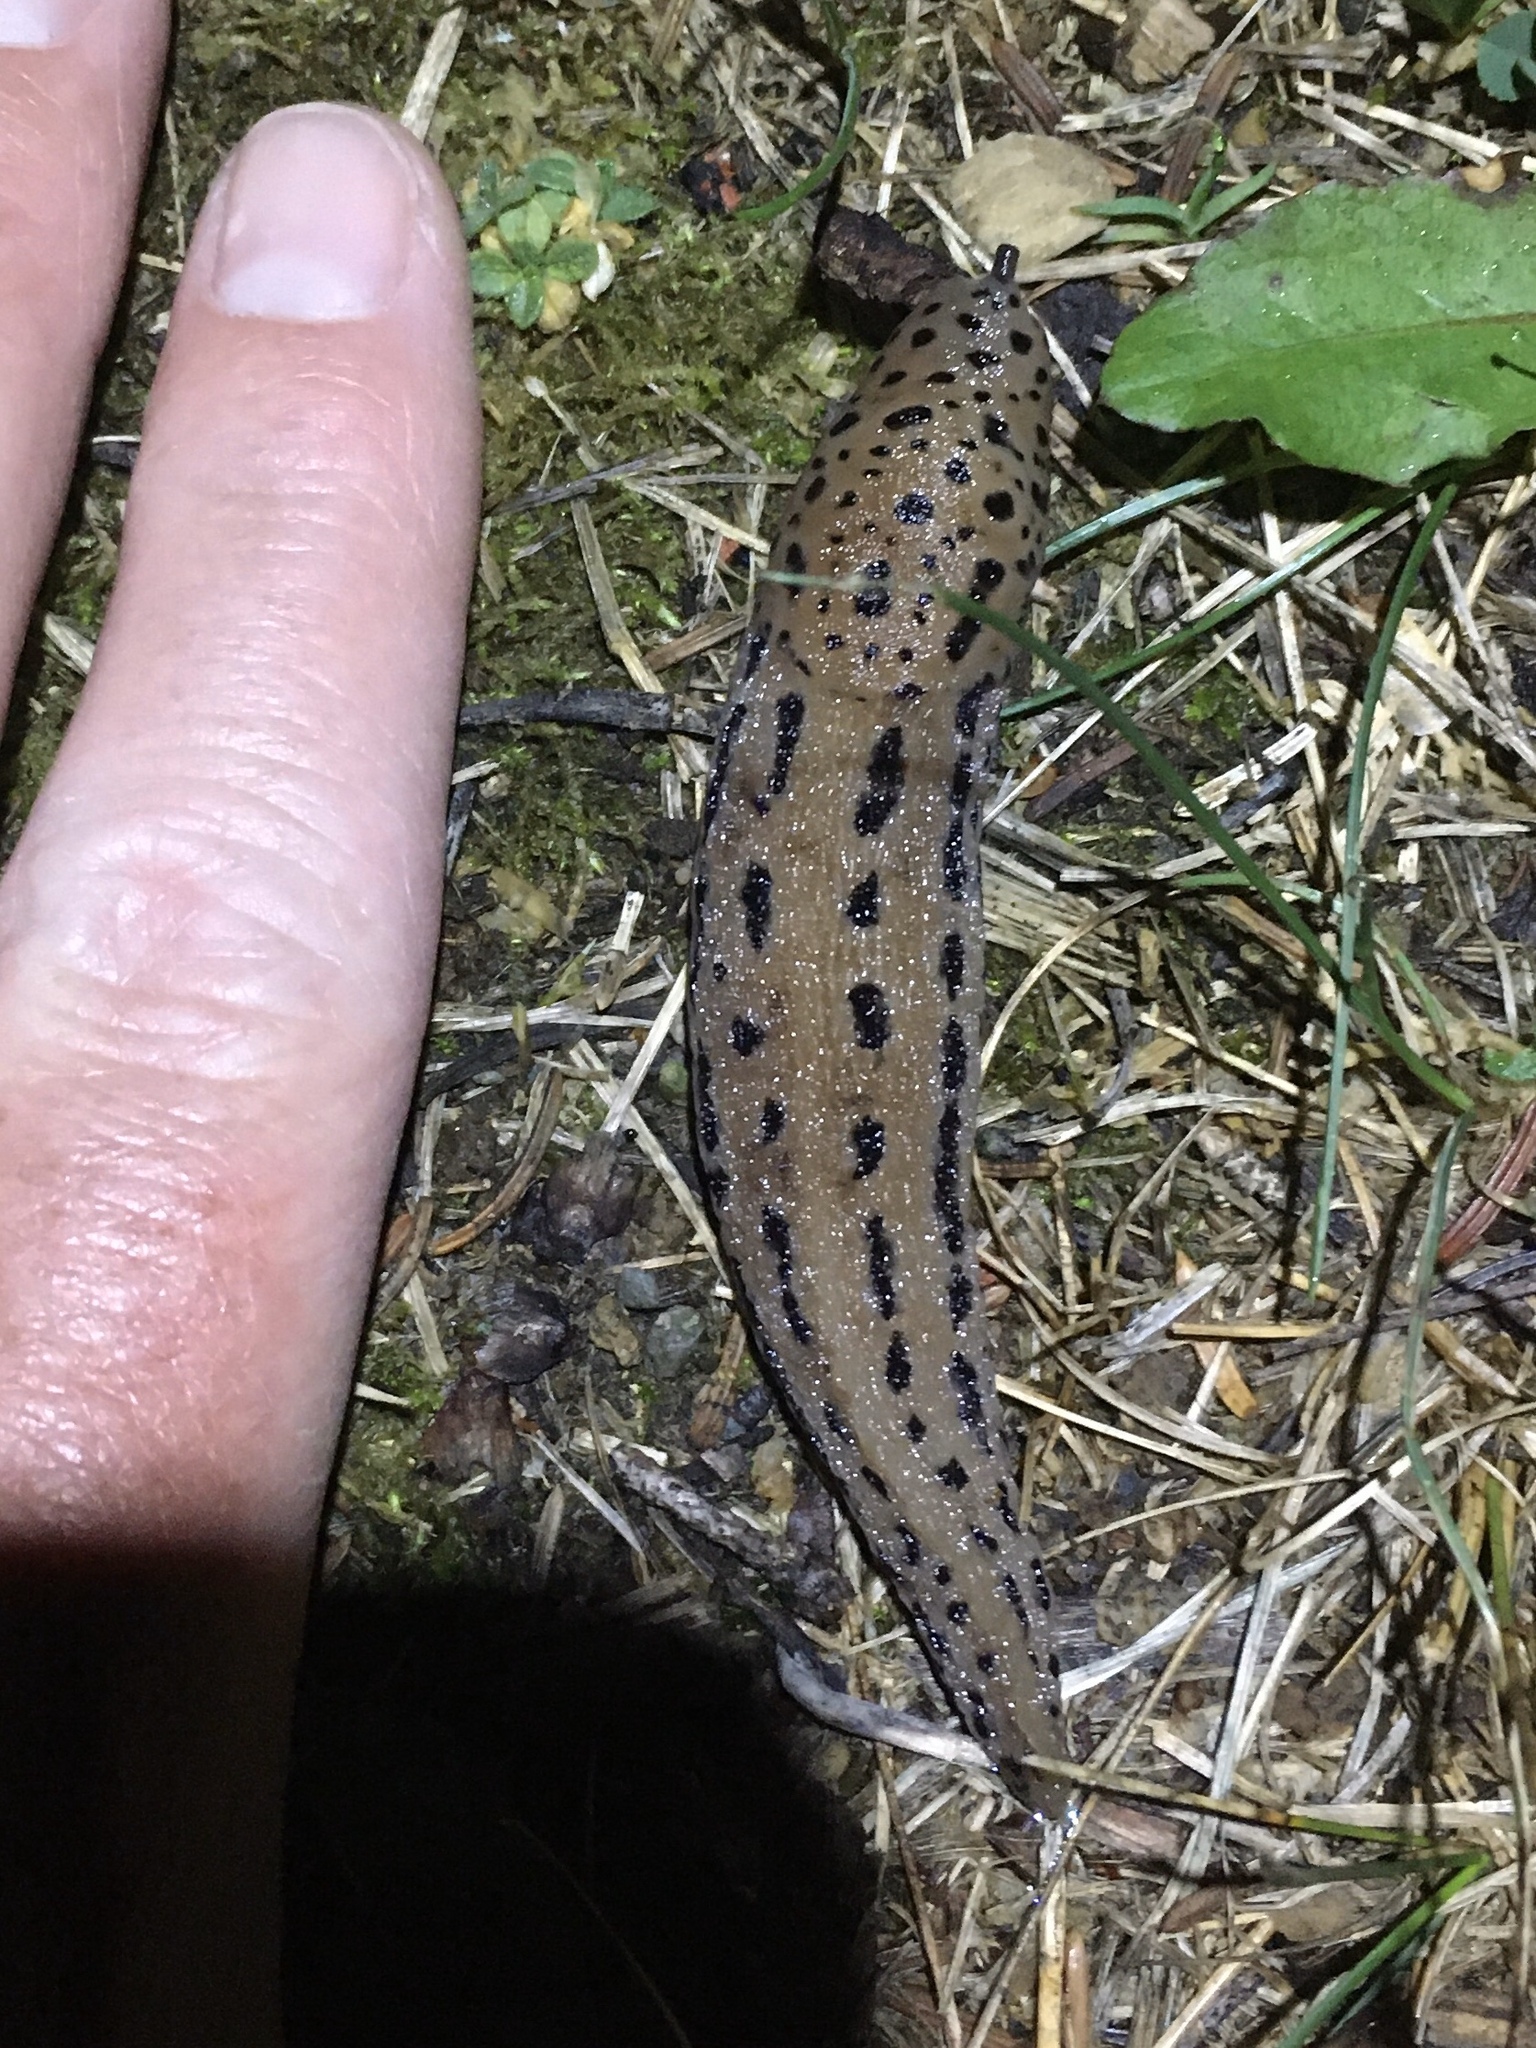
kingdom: Animalia
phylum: Mollusca
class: Gastropoda
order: Stylommatophora
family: Limacidae
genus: Limax
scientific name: Limax maximus
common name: Great grey slug
